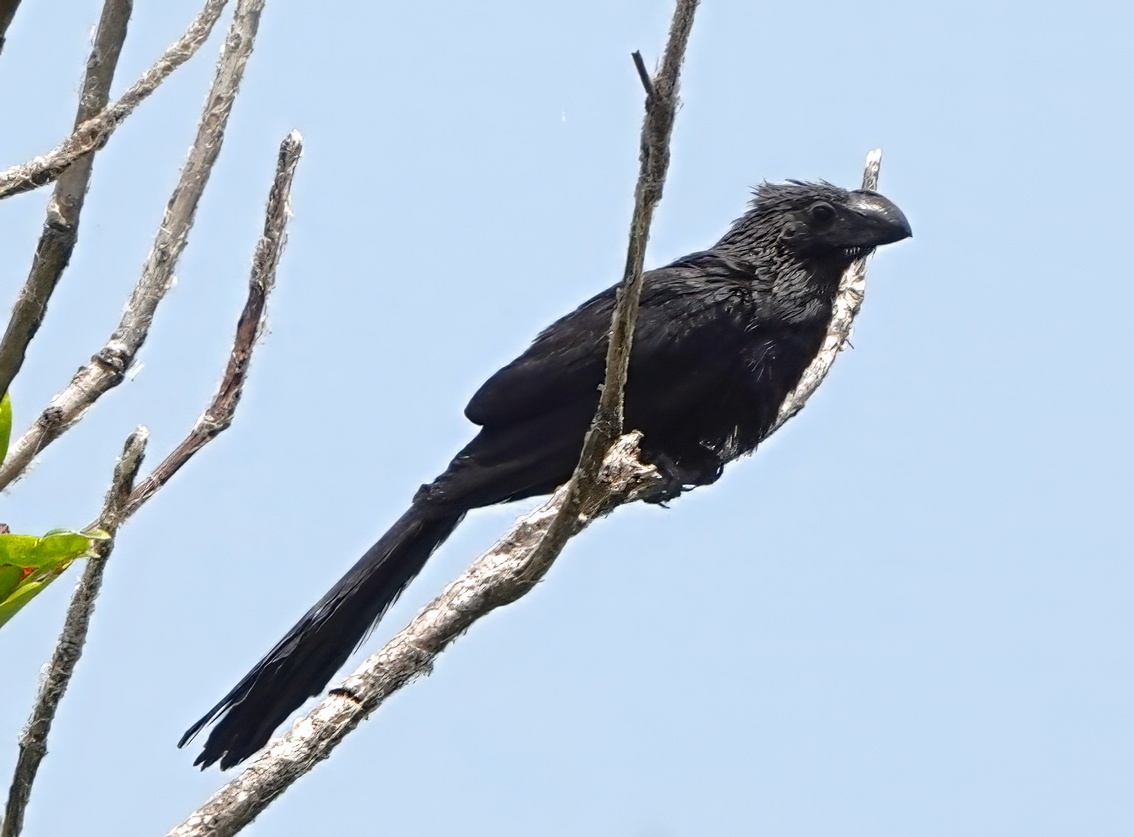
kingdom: Animalia
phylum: Chordata
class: Aves
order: Cuculiformes
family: Cuculidae
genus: Crotophaga
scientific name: Crotophaga ani
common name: Smooth-billed ani
